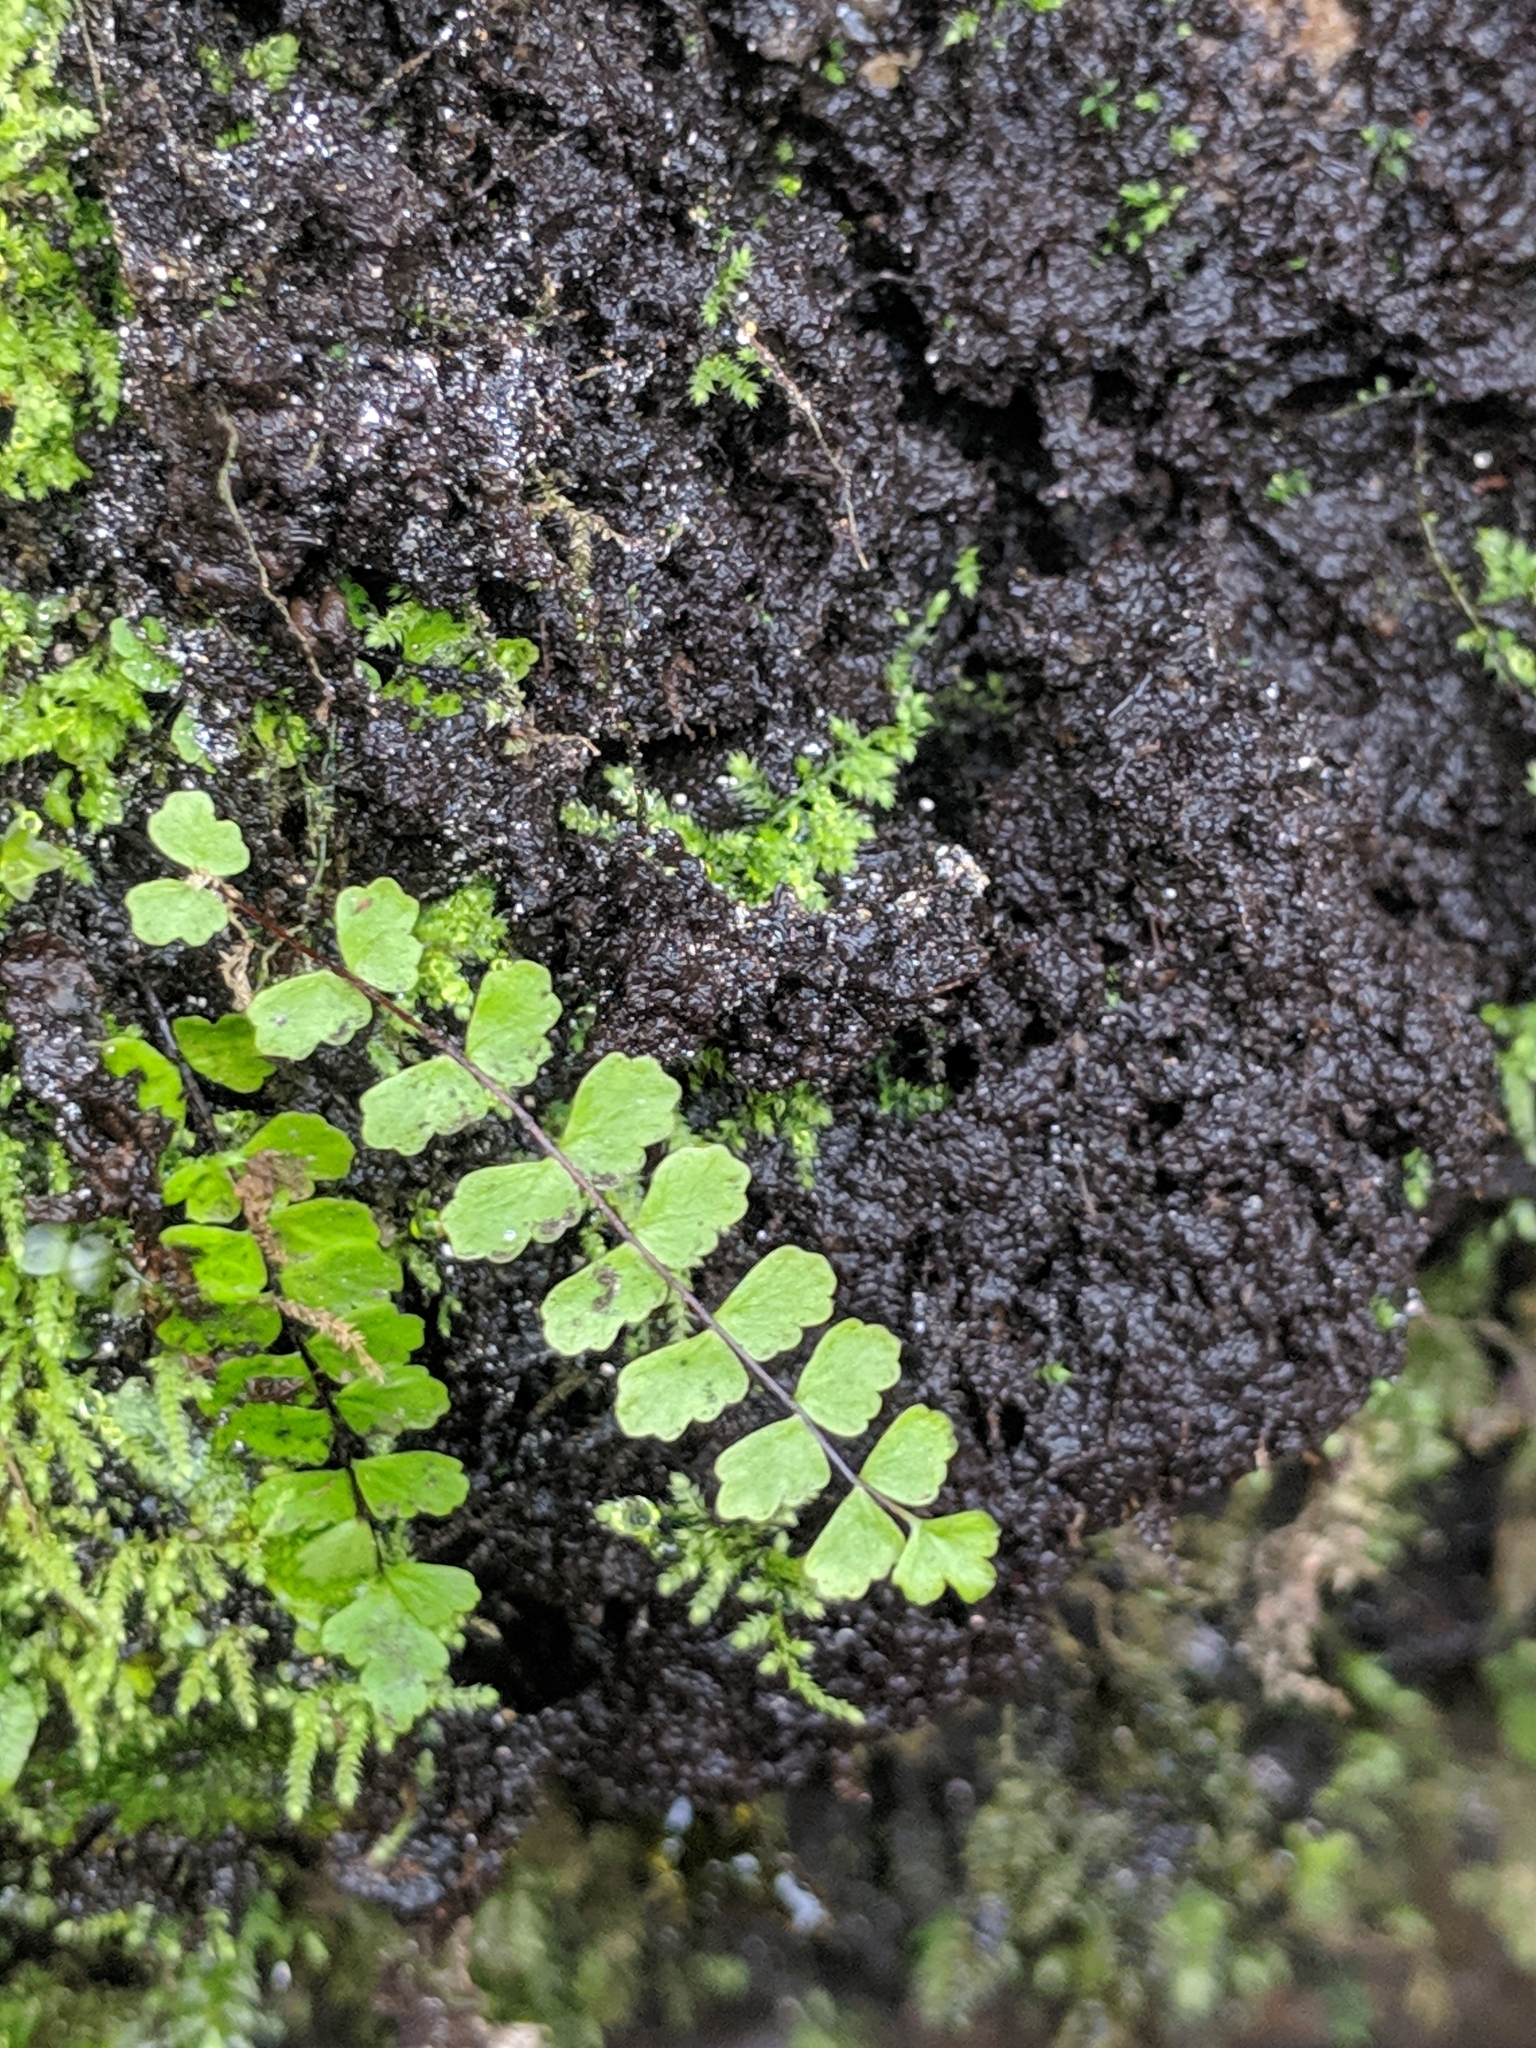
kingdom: Plantae
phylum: Tracheophyta
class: Polypodiopsida
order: Polypodiales
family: Aspleniaceae
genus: Asplenium
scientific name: Asplenium trichomanes
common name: Maidenhair spleenwort
